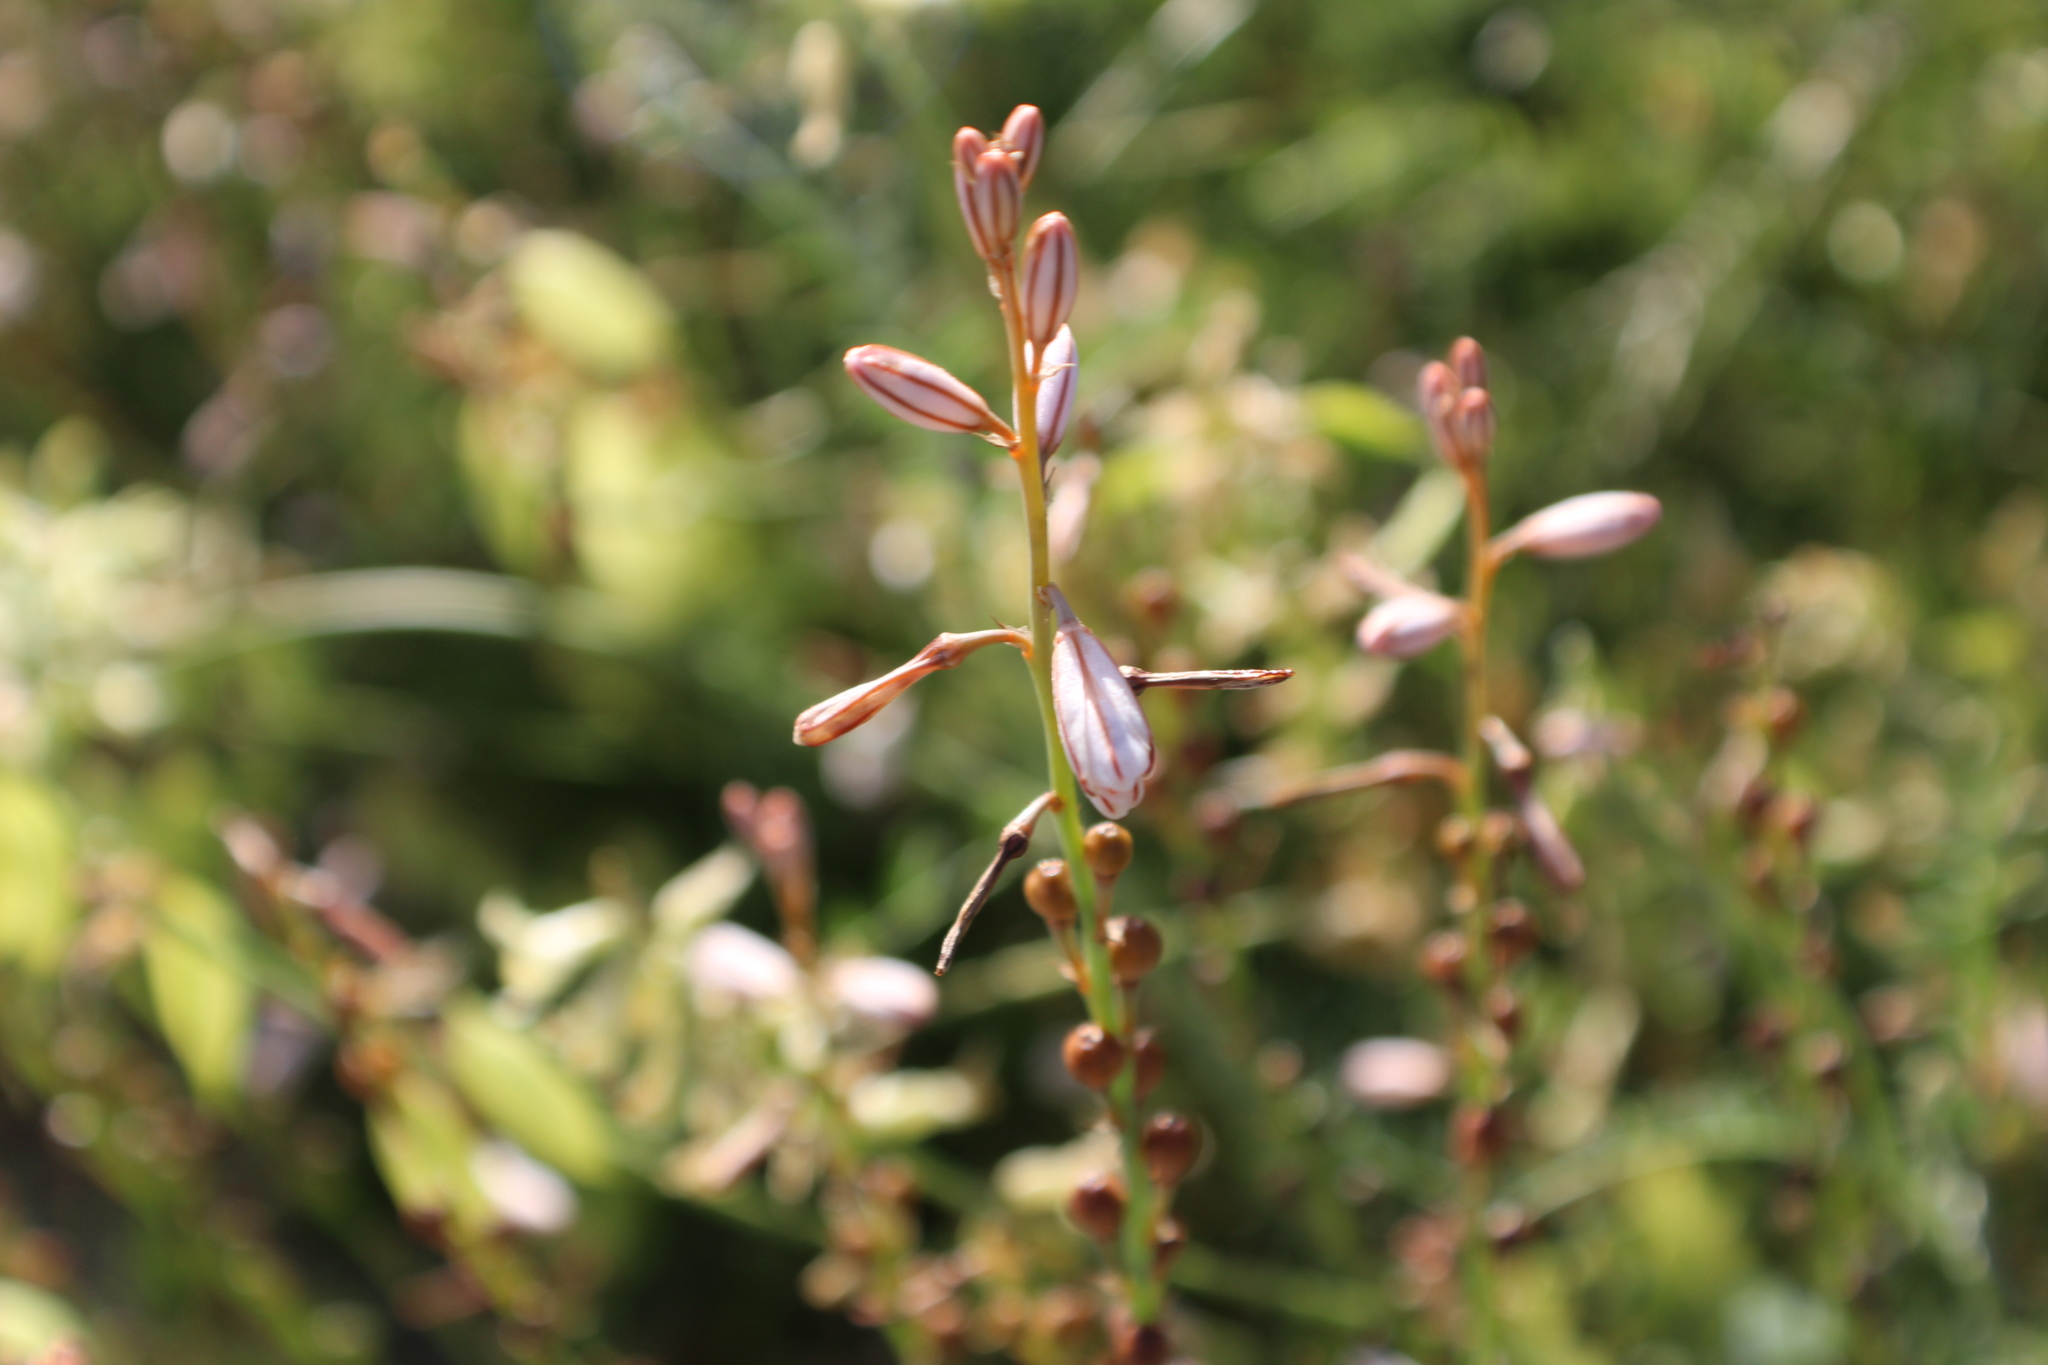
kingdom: Plantae
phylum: Tracheophyta
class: Liliopsida
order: Asparagales
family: Asphodelaceae
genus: Asphodelus
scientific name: Asphodelus fistulosus
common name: Onionweed
